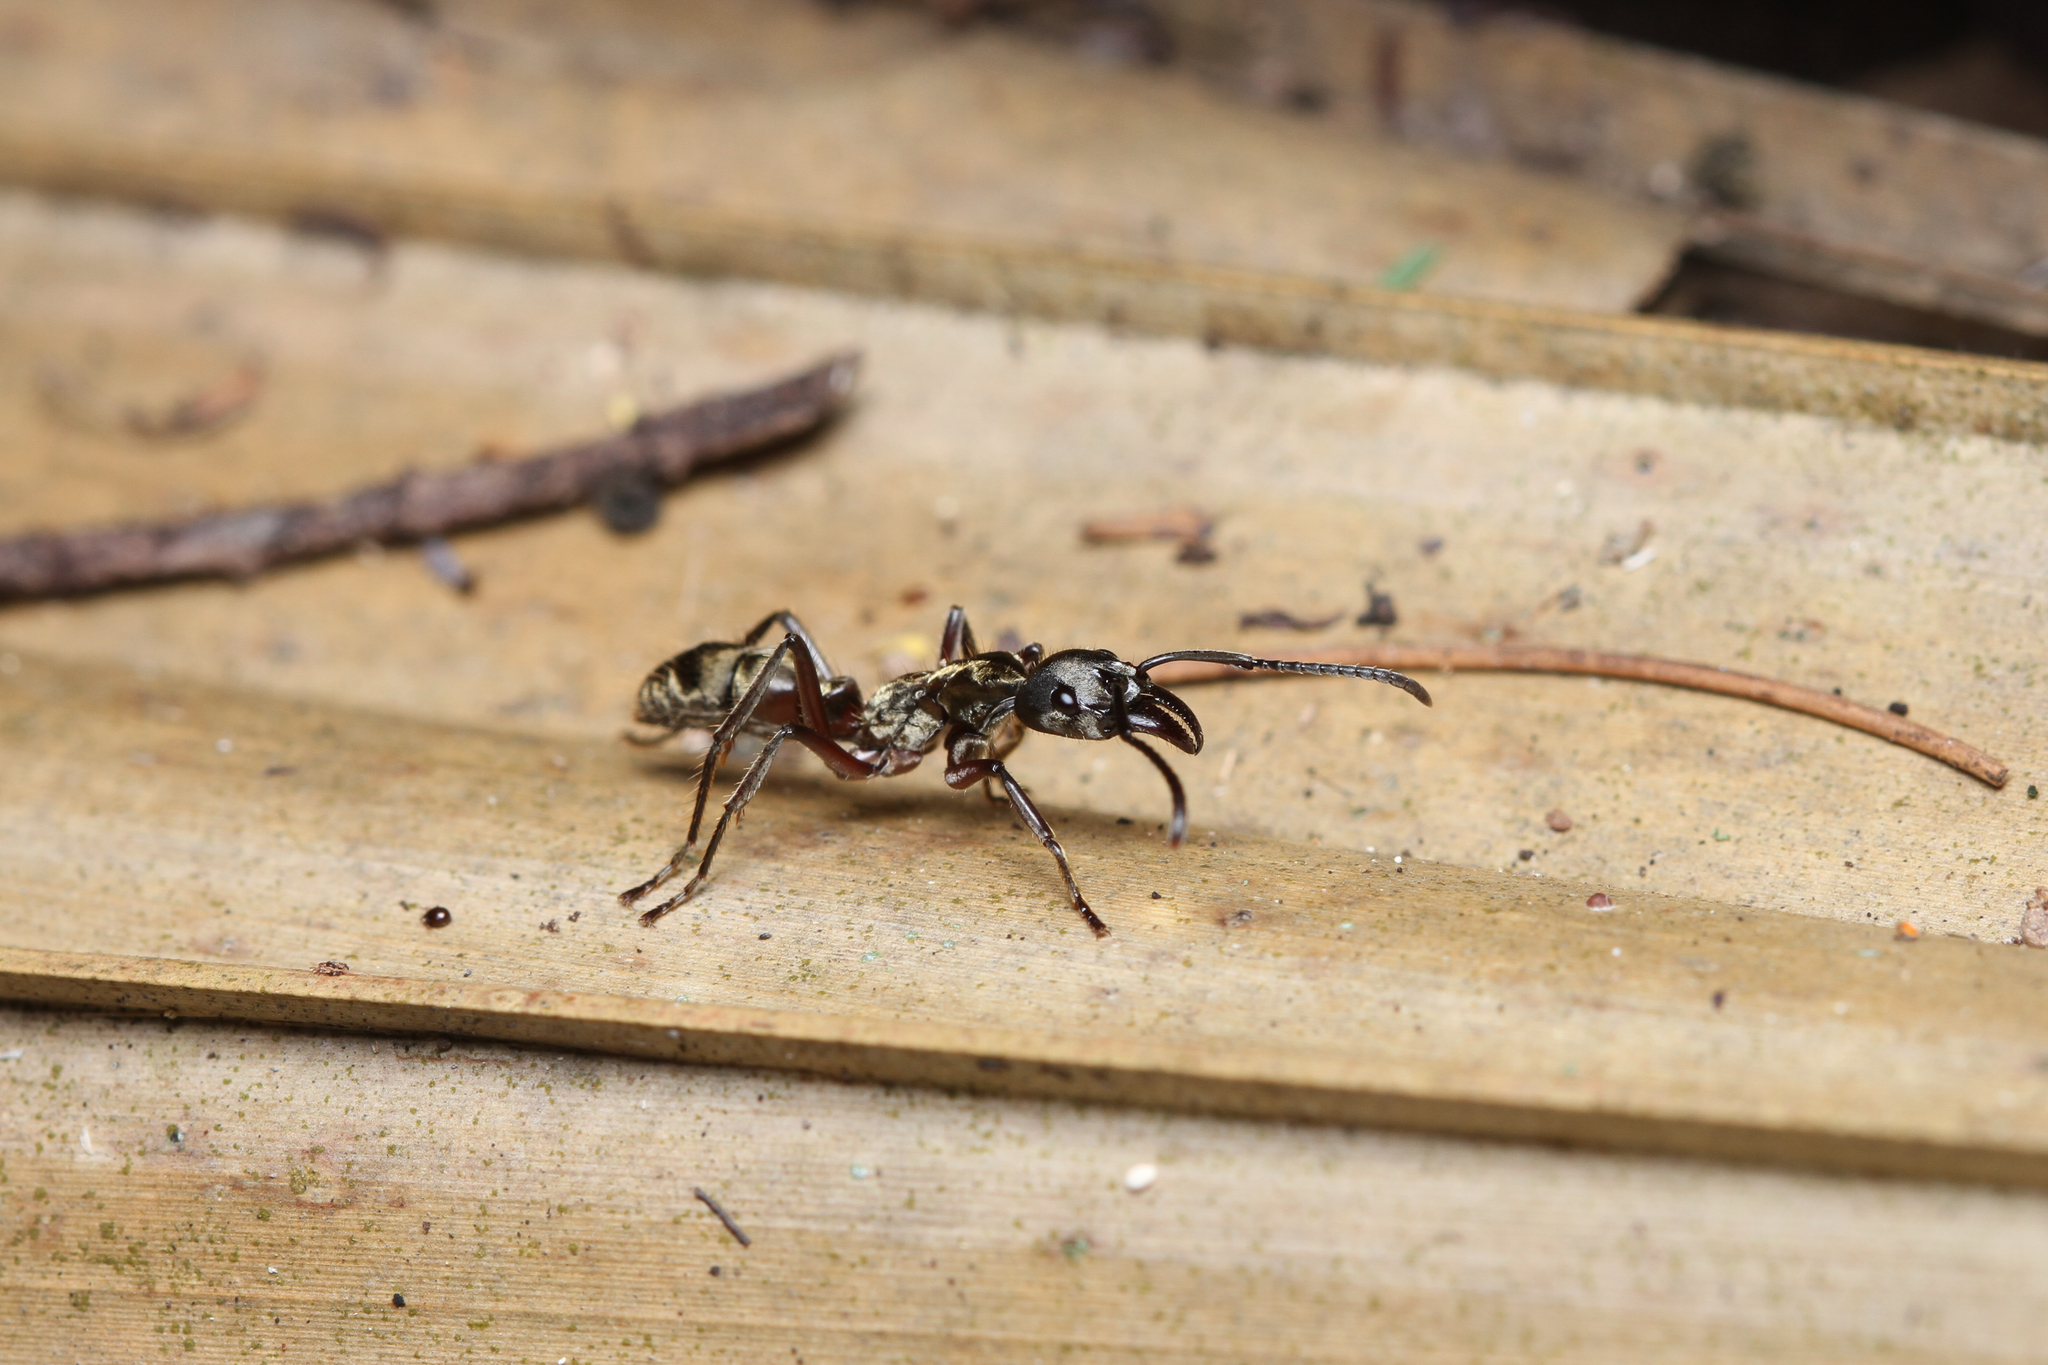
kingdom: Animalia
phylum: Arthropoda
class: Insecta
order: Hymenoptera
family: Formicidae
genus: Pachycondyla
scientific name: Pachycondyla villosa
